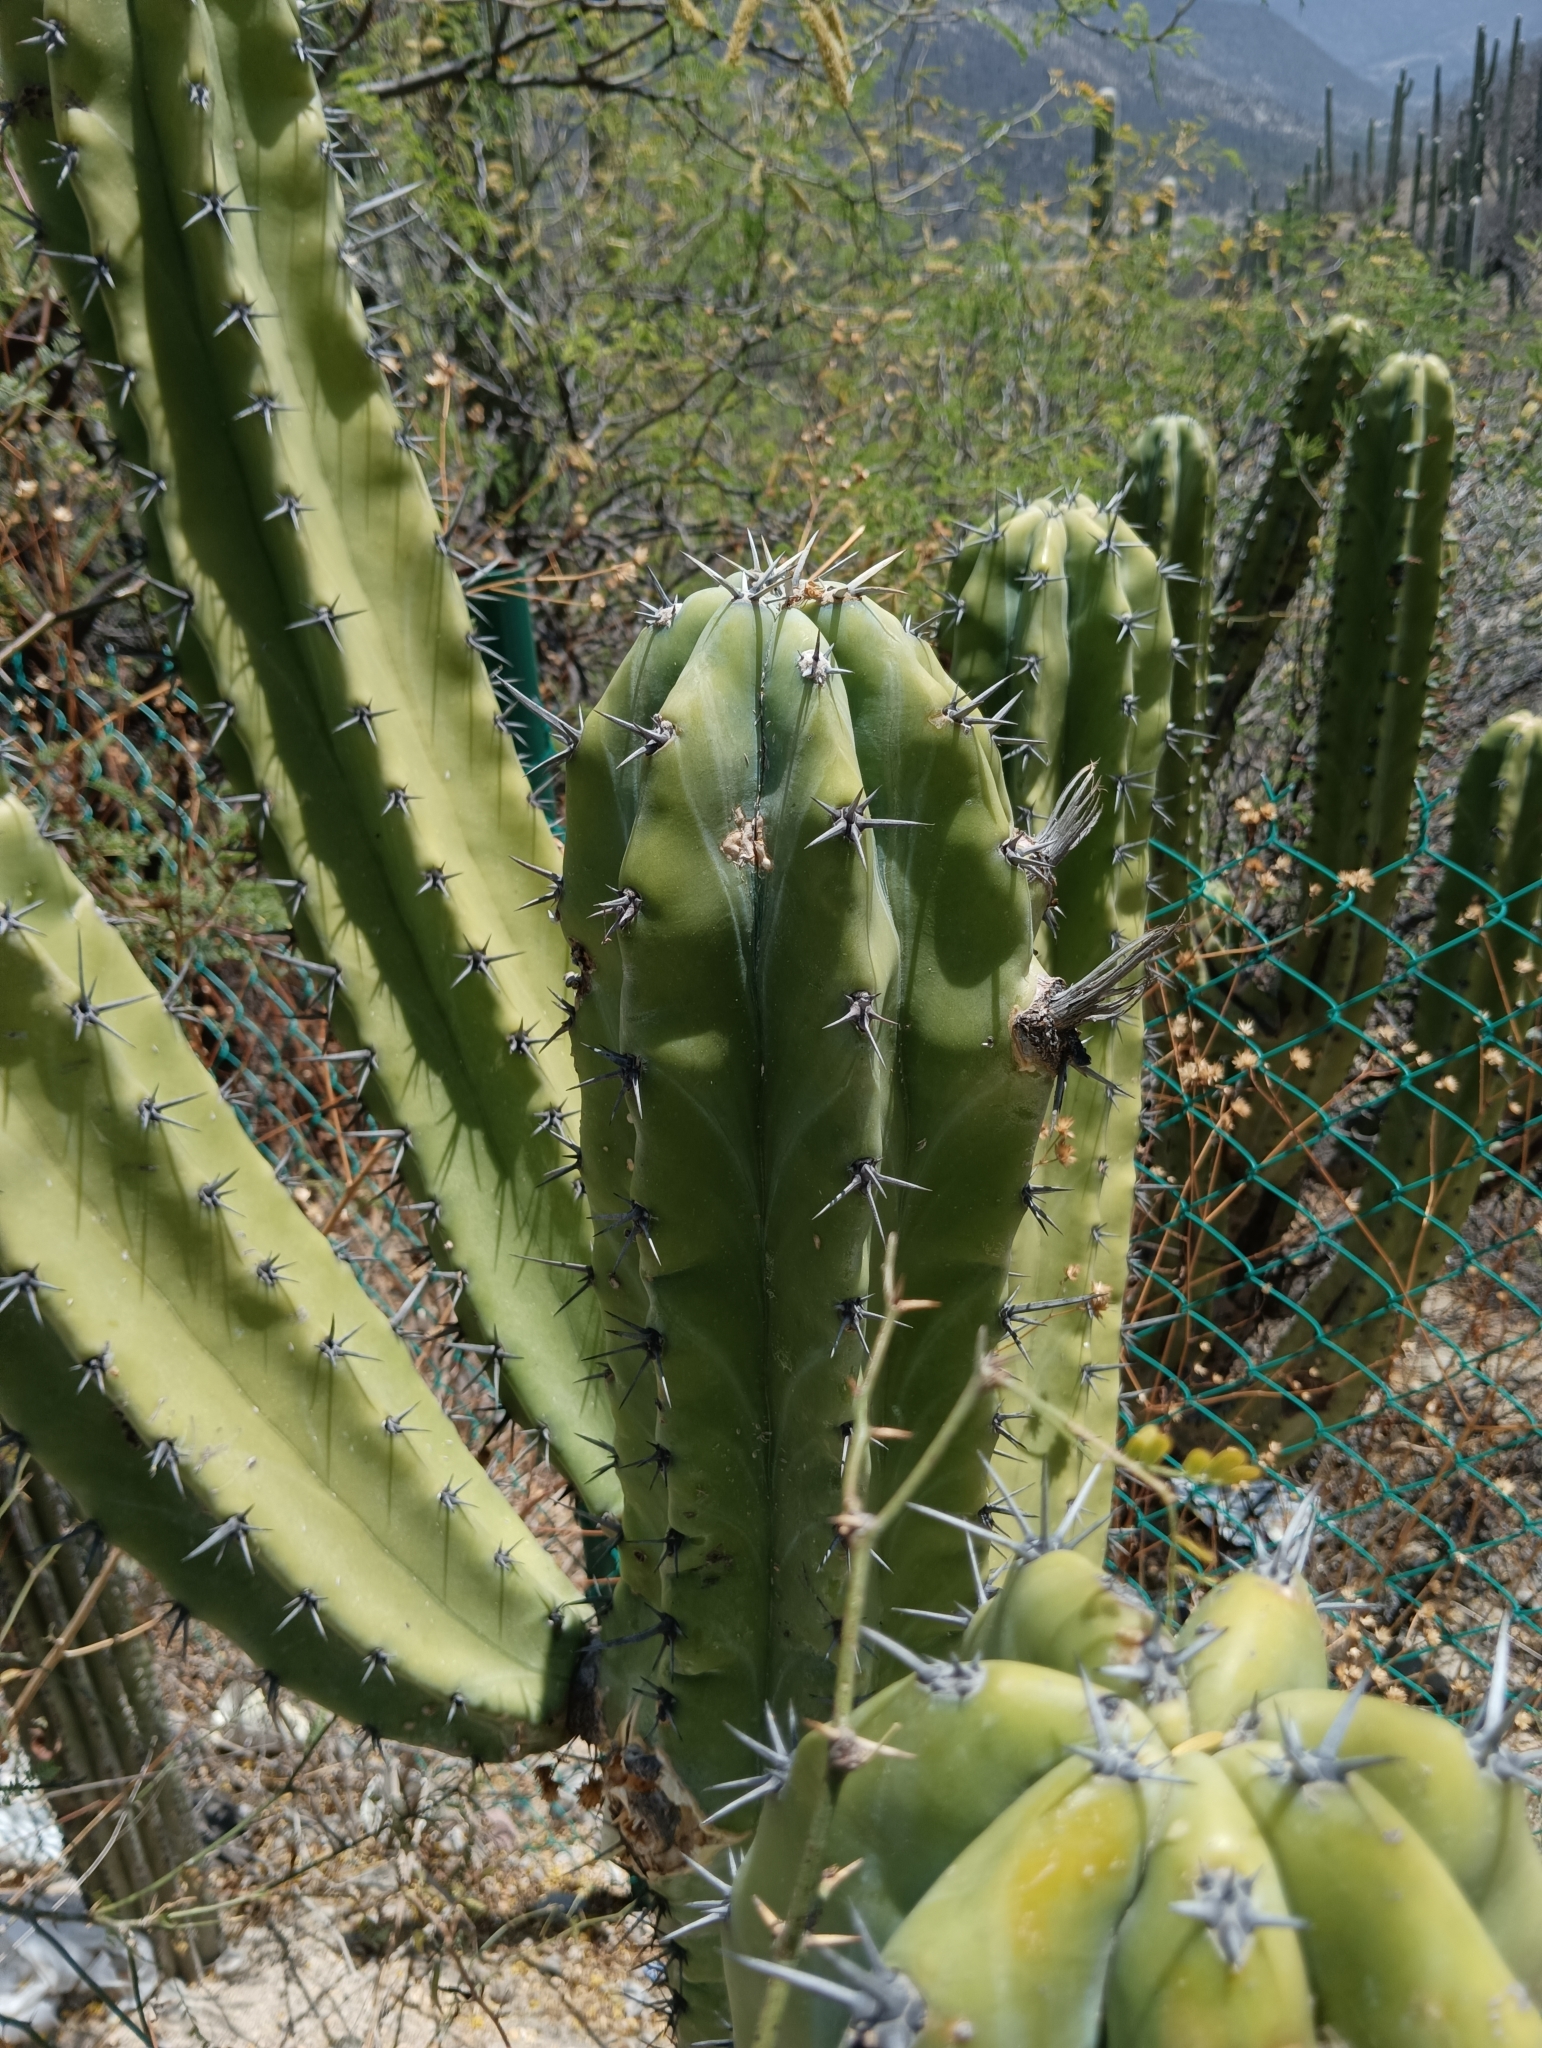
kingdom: Plantae
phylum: Tracheophyta
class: Magnoliopsida
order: Caryophyllales
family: Cactaceae
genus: Myrtillocactus
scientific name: Myrtillocactus geometrizans
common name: Bilberry cactus
